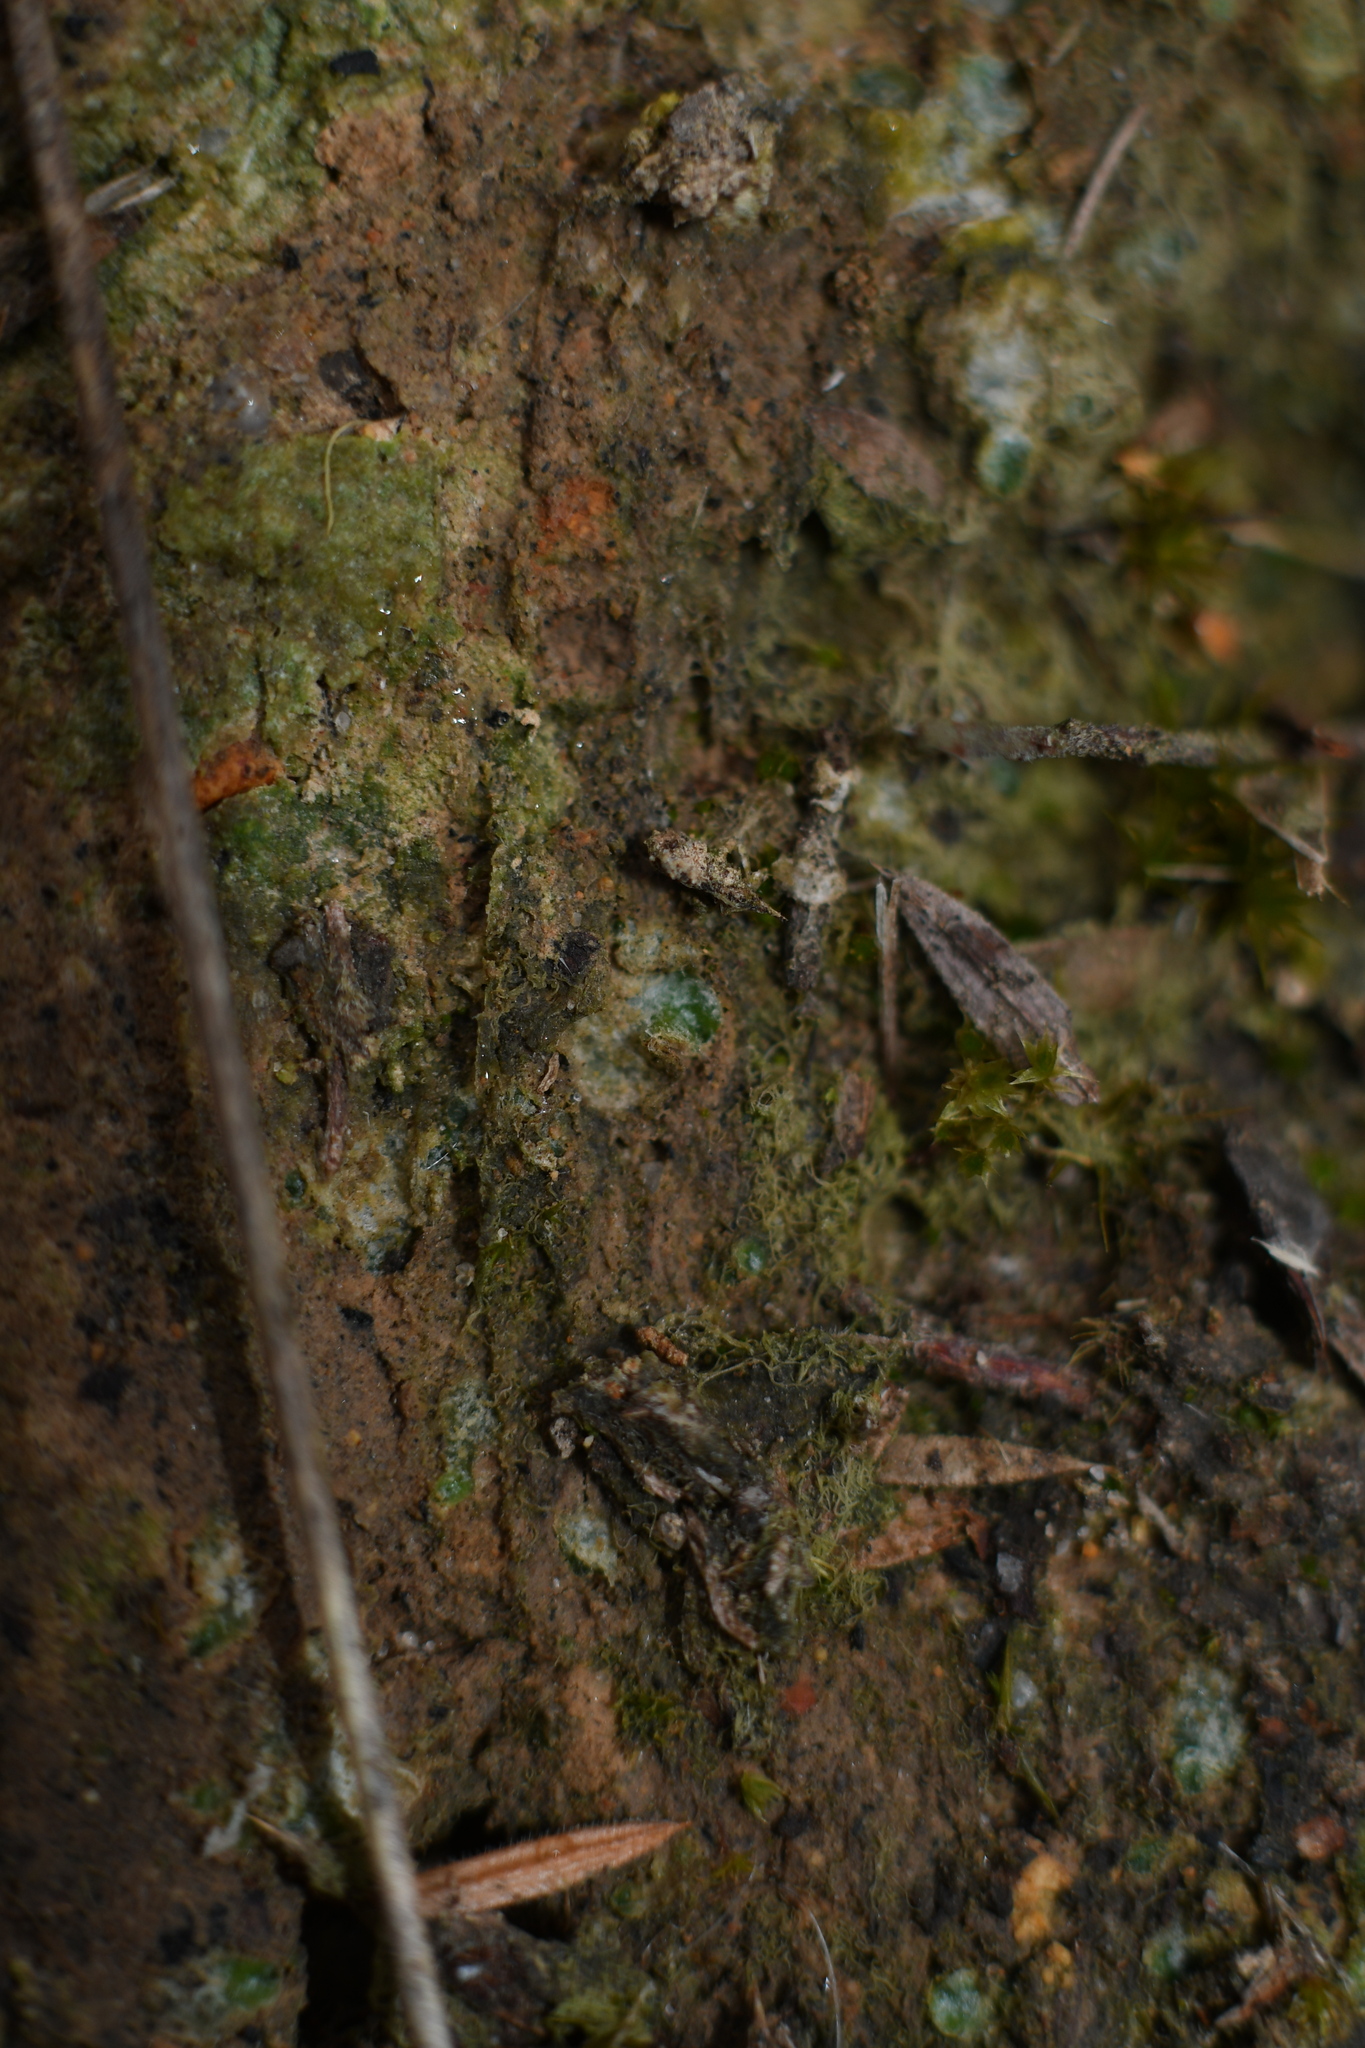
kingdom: Plantae
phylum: Marchantiophyta
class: Jungermanniopsida
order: Jungermanniales
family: Acrobolbaceae
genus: Enigmella
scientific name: Enigmella thallina
